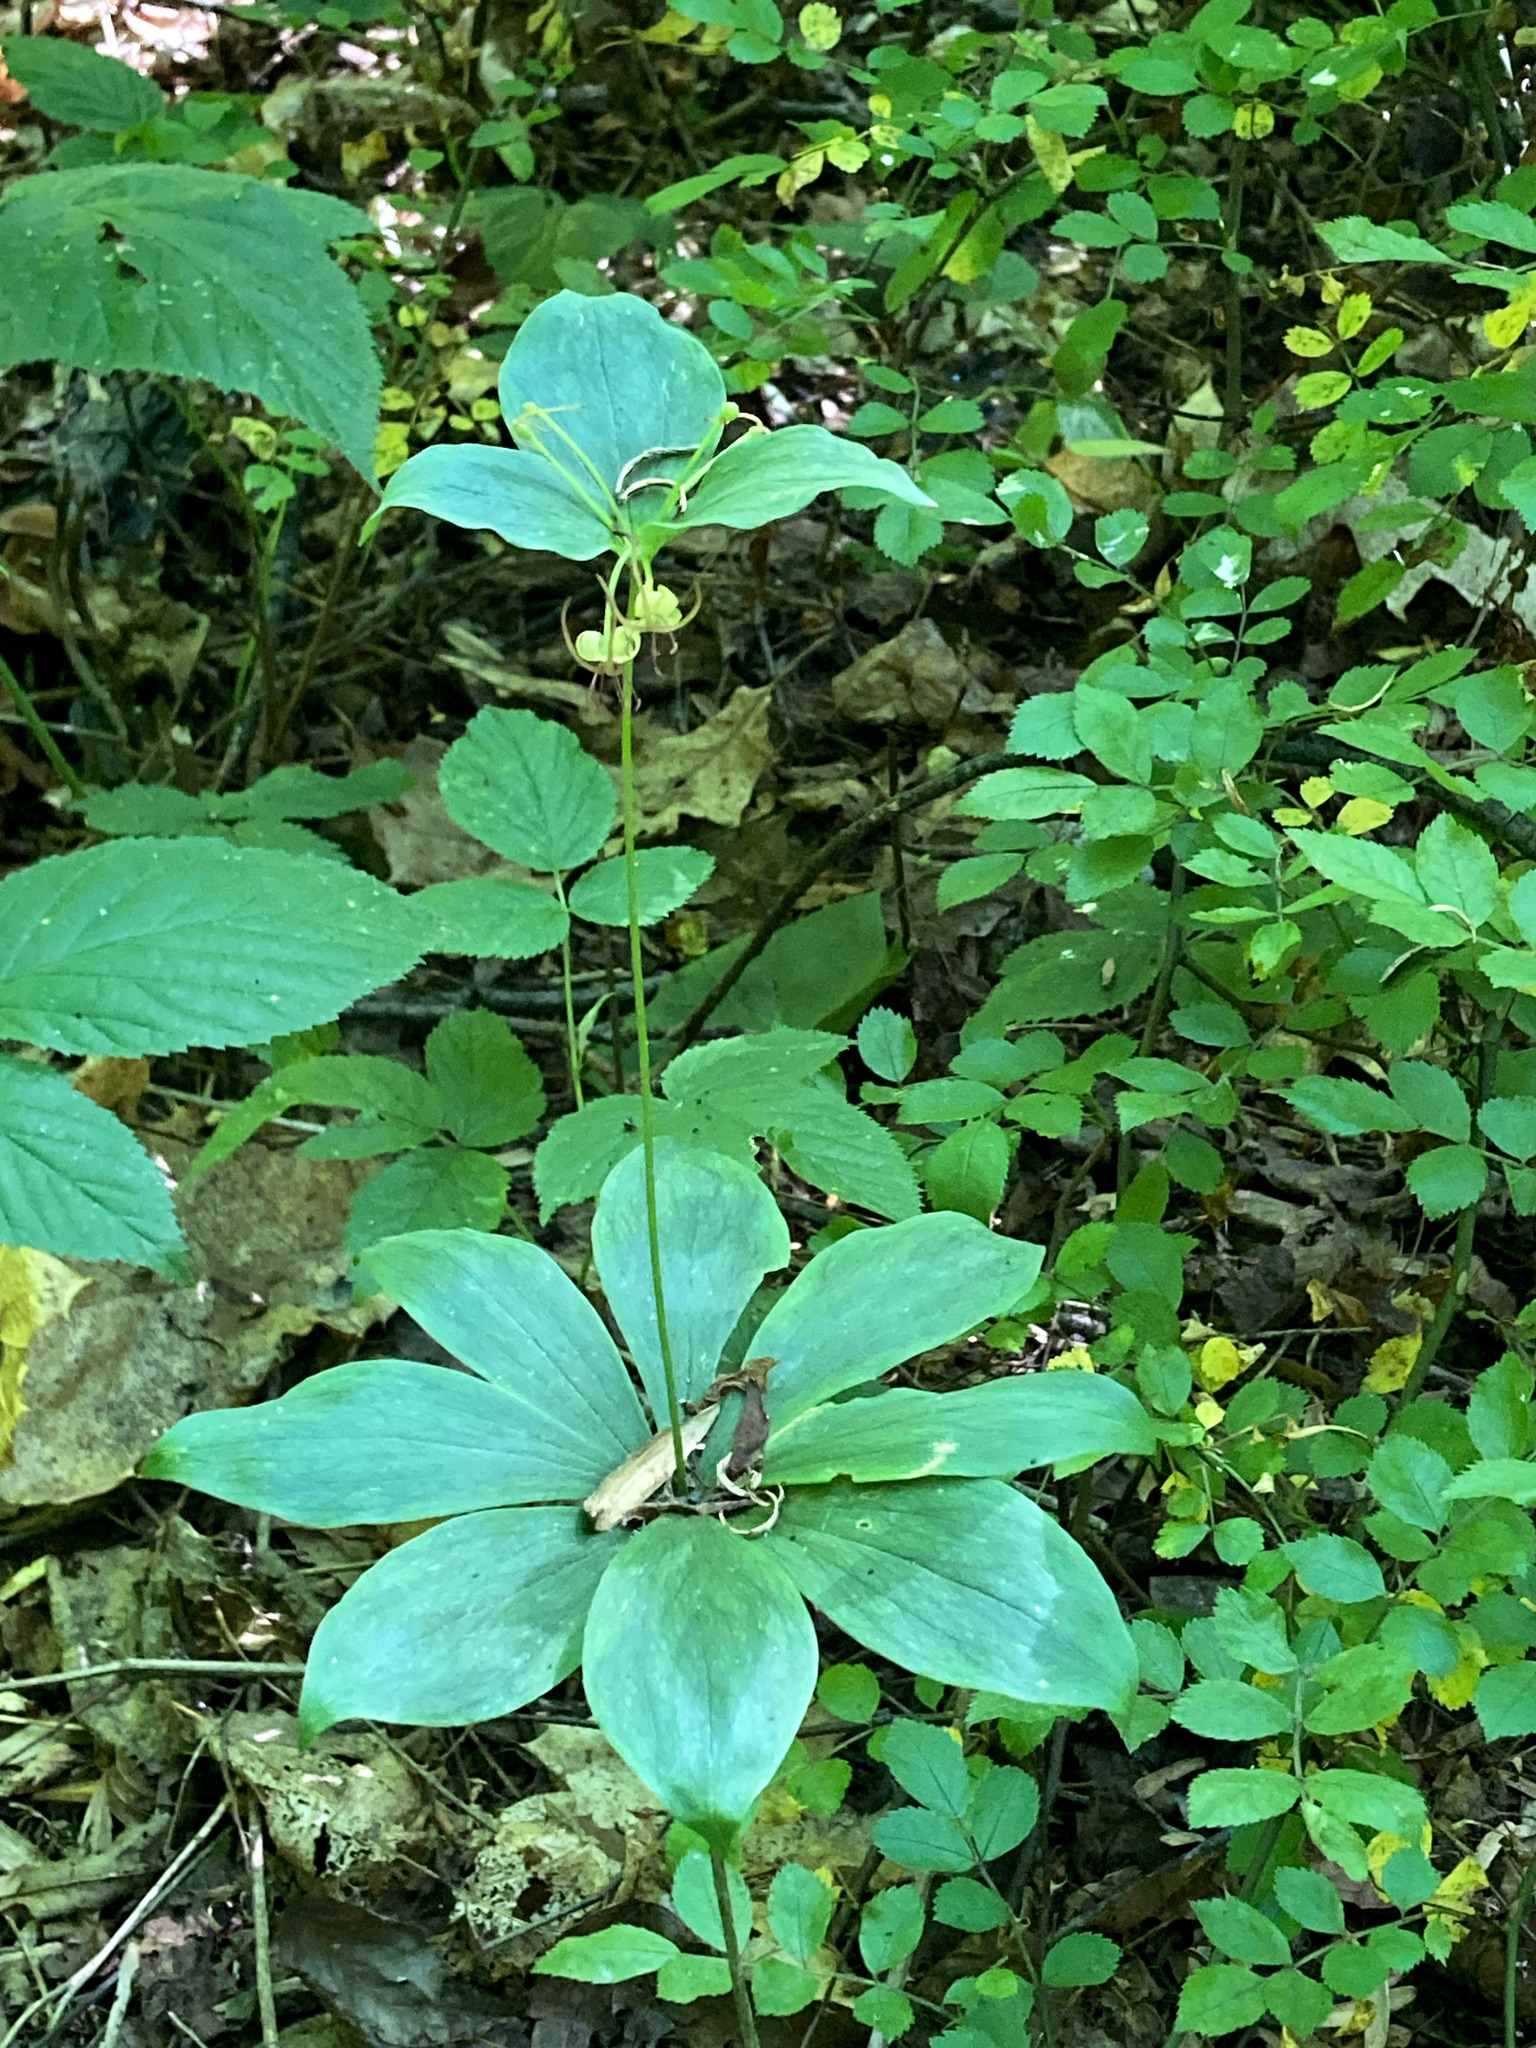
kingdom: Plantae
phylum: Tracheophyta
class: Liliopsida
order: Liliales
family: Liliaceae
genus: Medeola
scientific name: Medeola virginiana
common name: Indian cucumber-root
